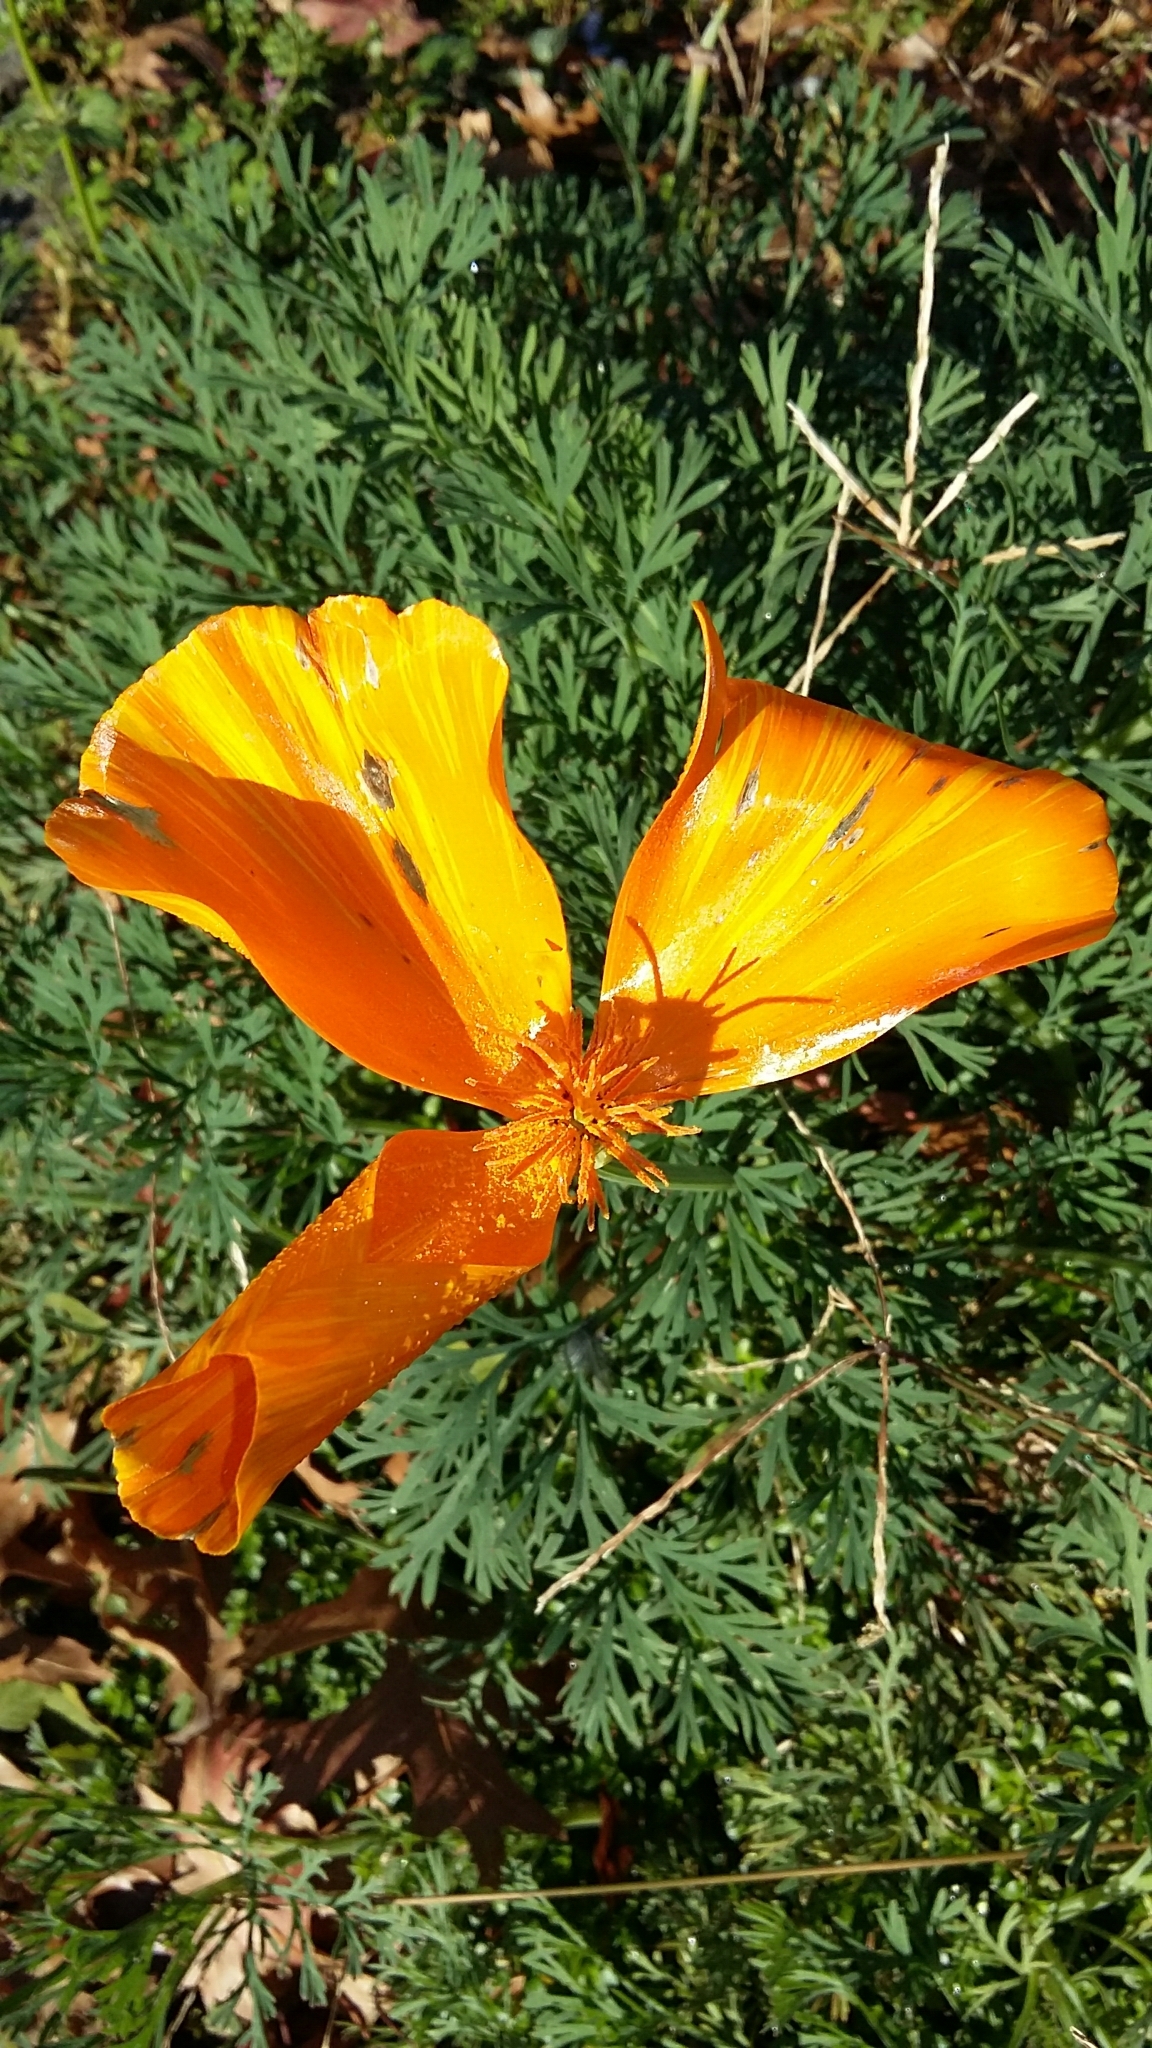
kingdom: Plantae
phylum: Tracheophyta
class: Magnoliopsida
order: Ranunculales
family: Papaveraceae
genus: Eschscholzia
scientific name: Eschscholzia californica
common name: California poppy
